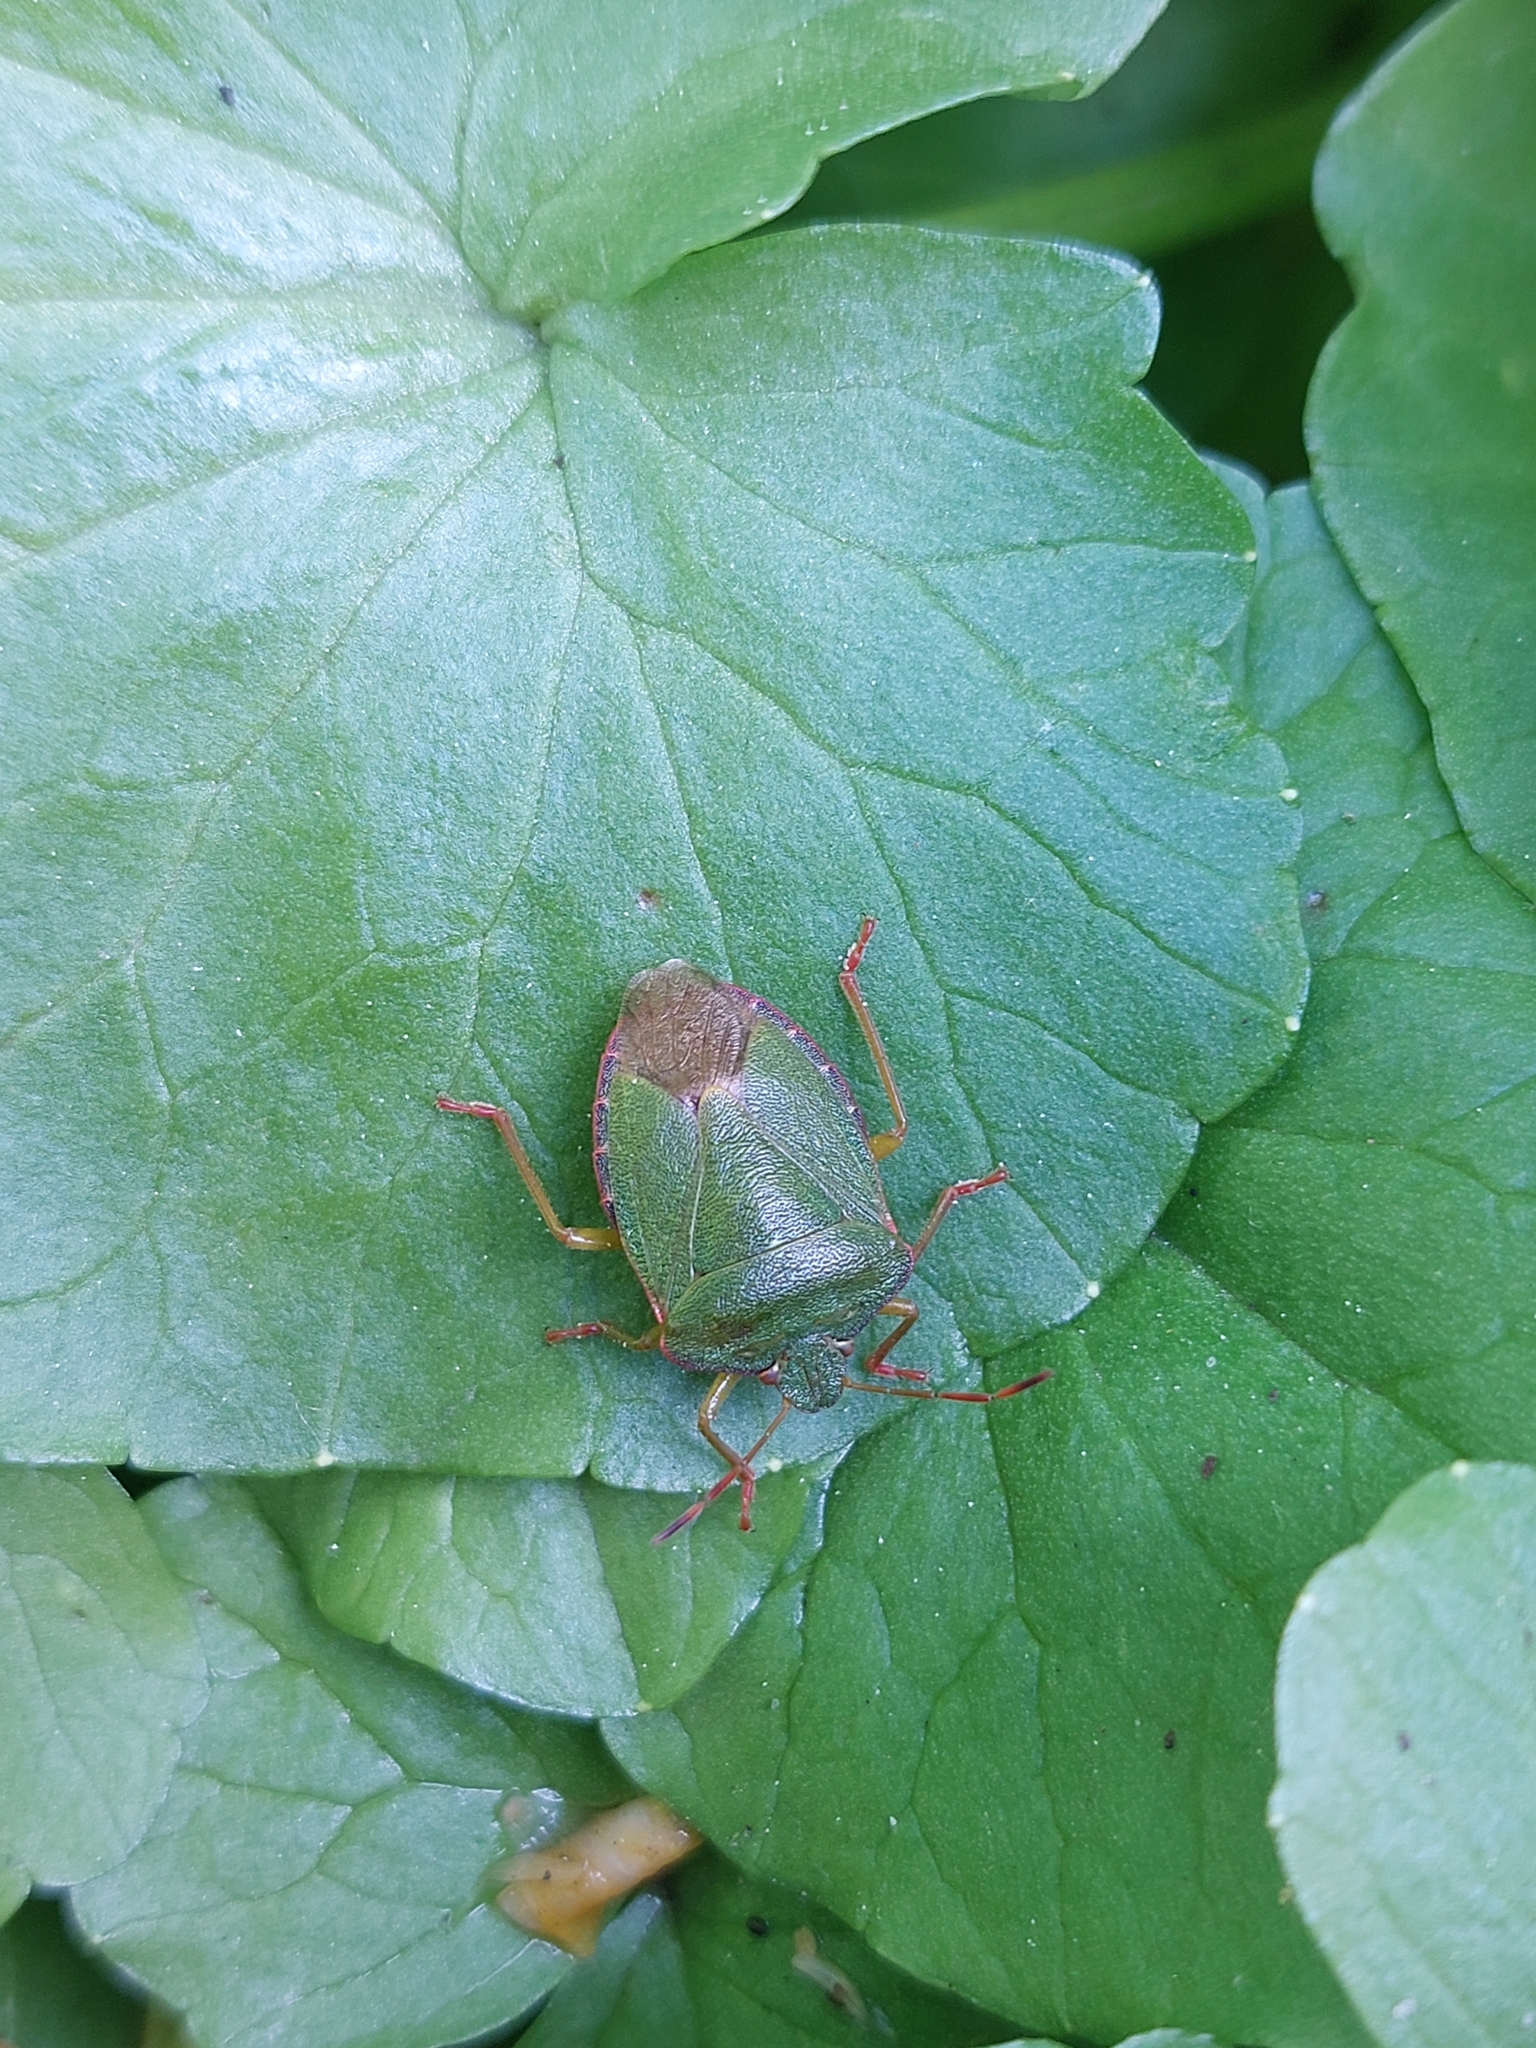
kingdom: Animalia
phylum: Arthropoda
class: Insecta
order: Hemiptera
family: Pentatomidae
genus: Palomena
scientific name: Palomena prasina
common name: Green shieldbug
